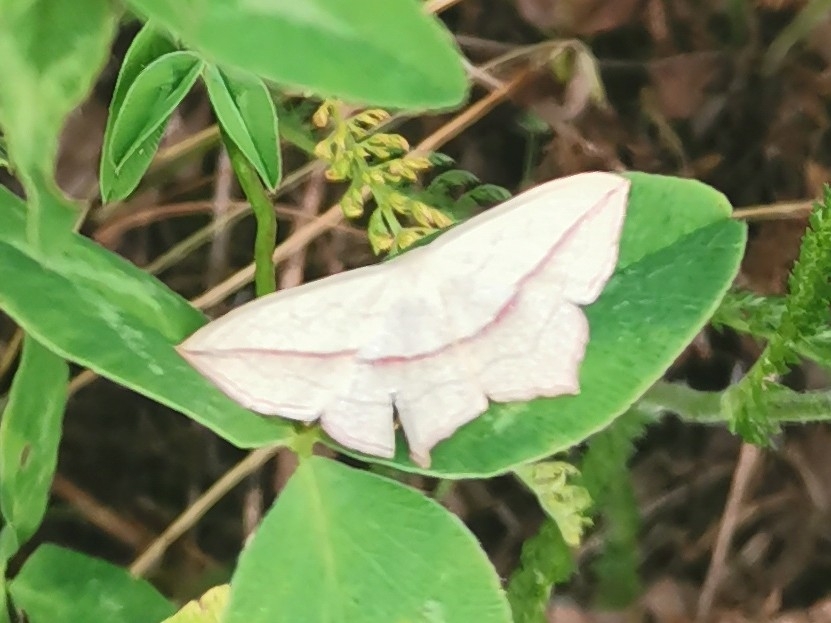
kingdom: Animalia
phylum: Arthropoda
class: Insecta
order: Lepidoptera
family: Geometridae
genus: Timandra
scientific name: Timandra comae
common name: Blood-vein
